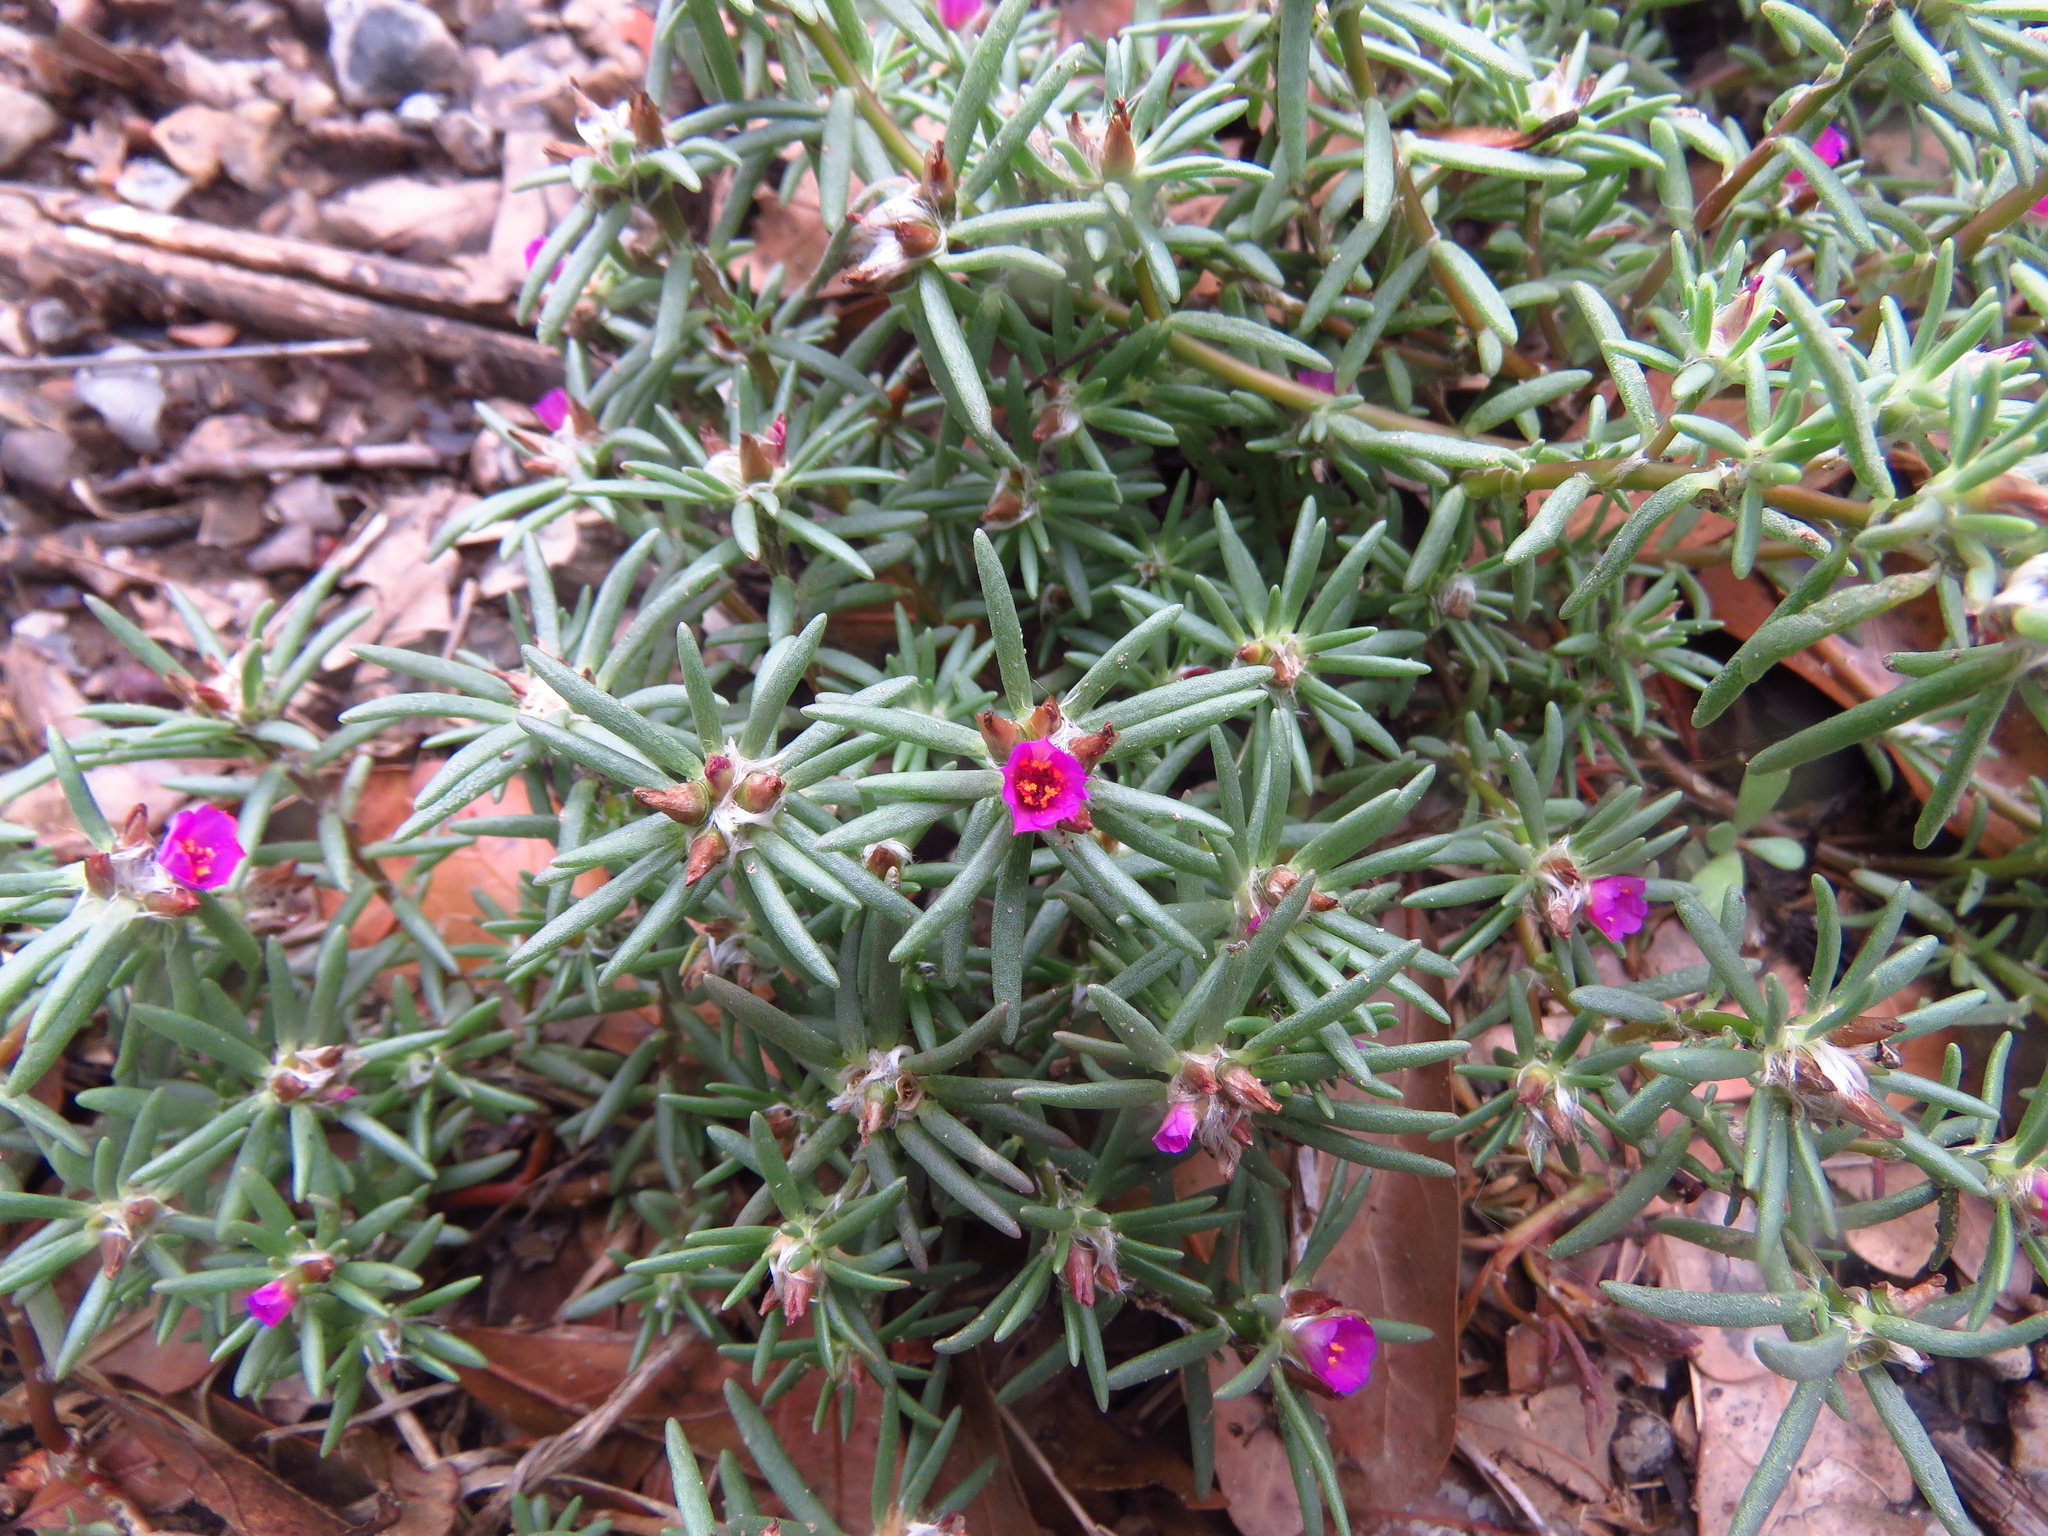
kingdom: Plantae
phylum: Tracheophyta
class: Magnoliopsida
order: Caryophyllales
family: Portulacaceae
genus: Portulaca
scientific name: Portulaca pilosa
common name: Kiss me quick
